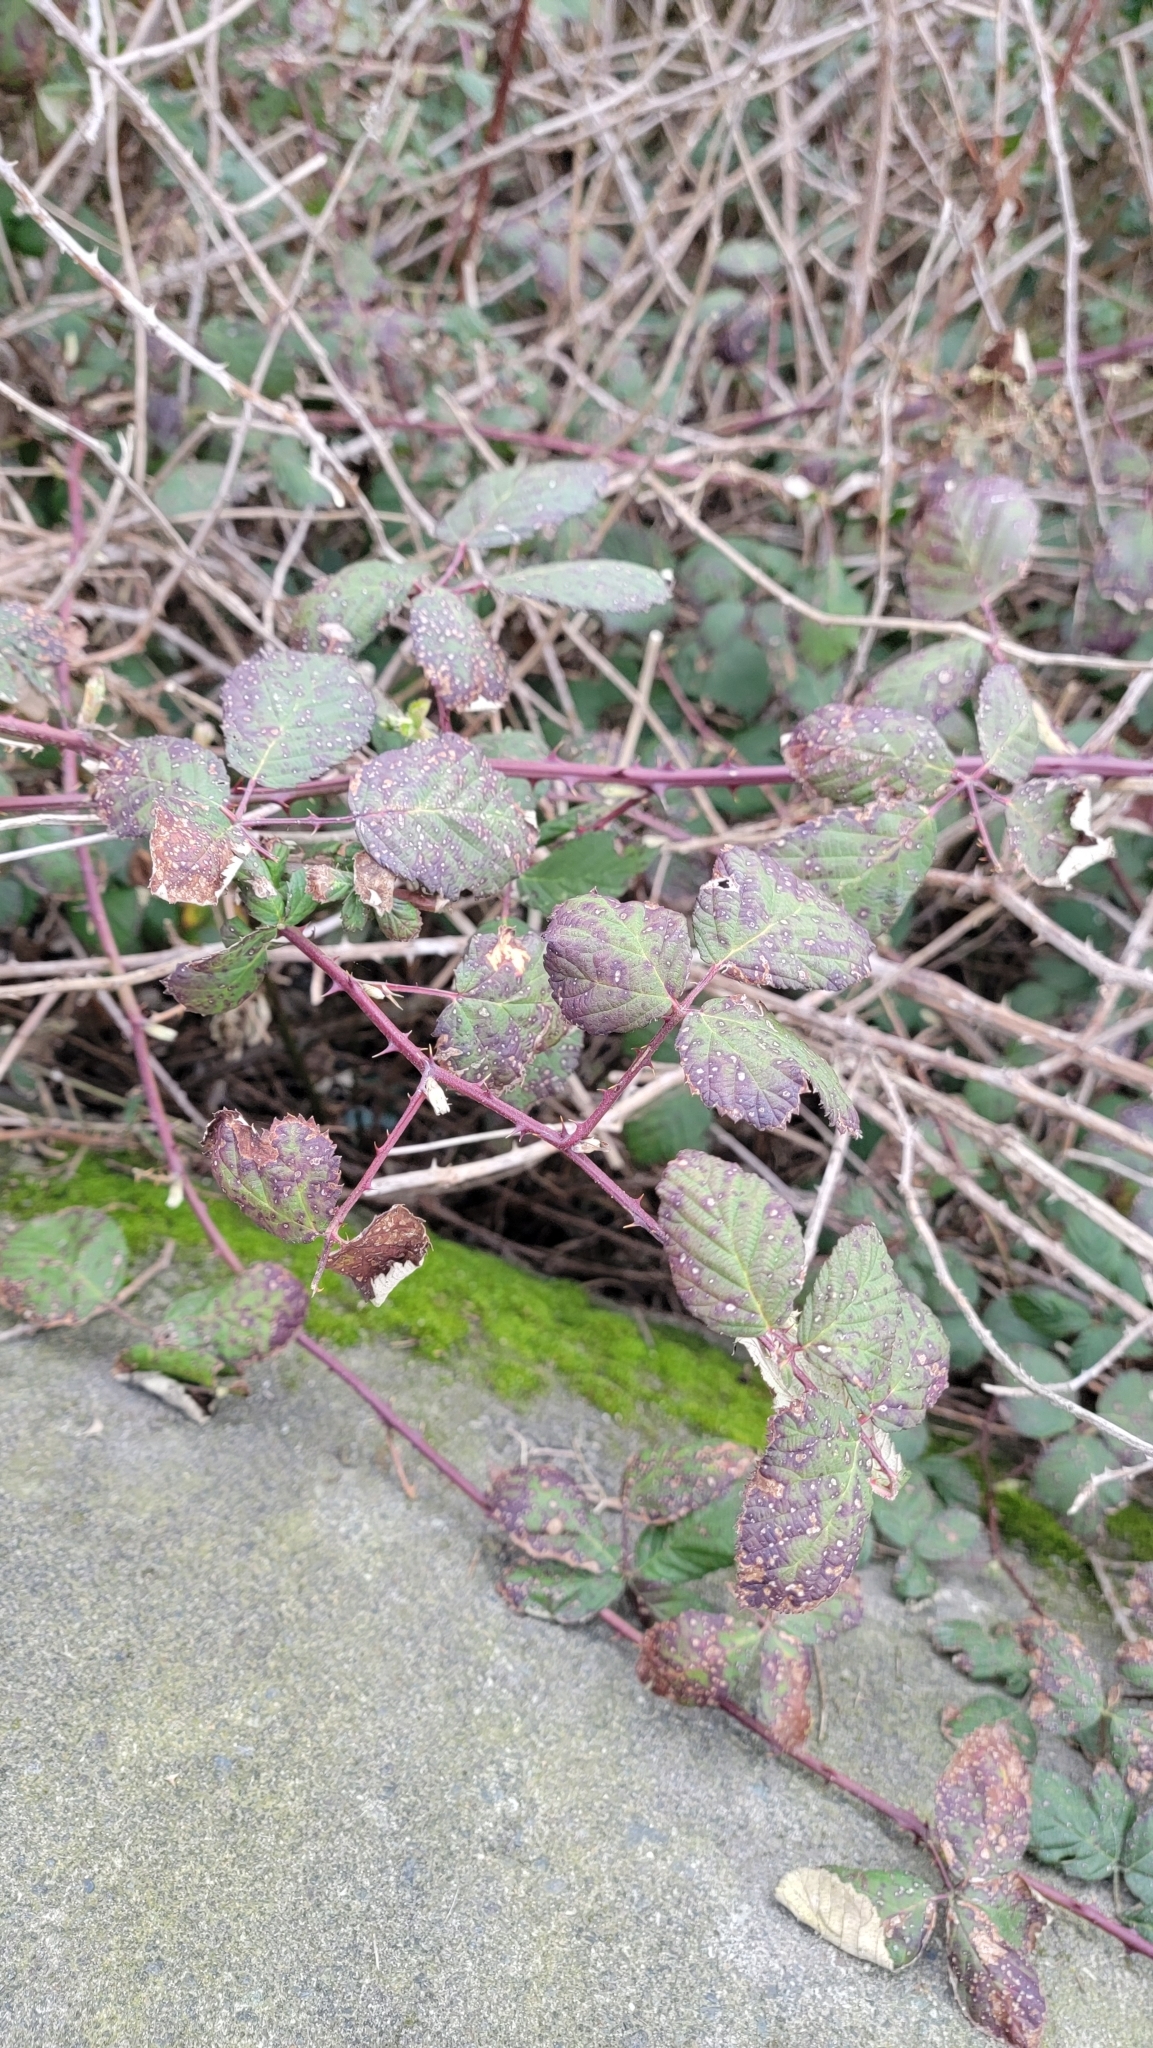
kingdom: Plantae
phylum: Tracheophyta
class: Magnoliopsida
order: Rosales
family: Rosaceae
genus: Rubus
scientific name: Rubus bifrons
